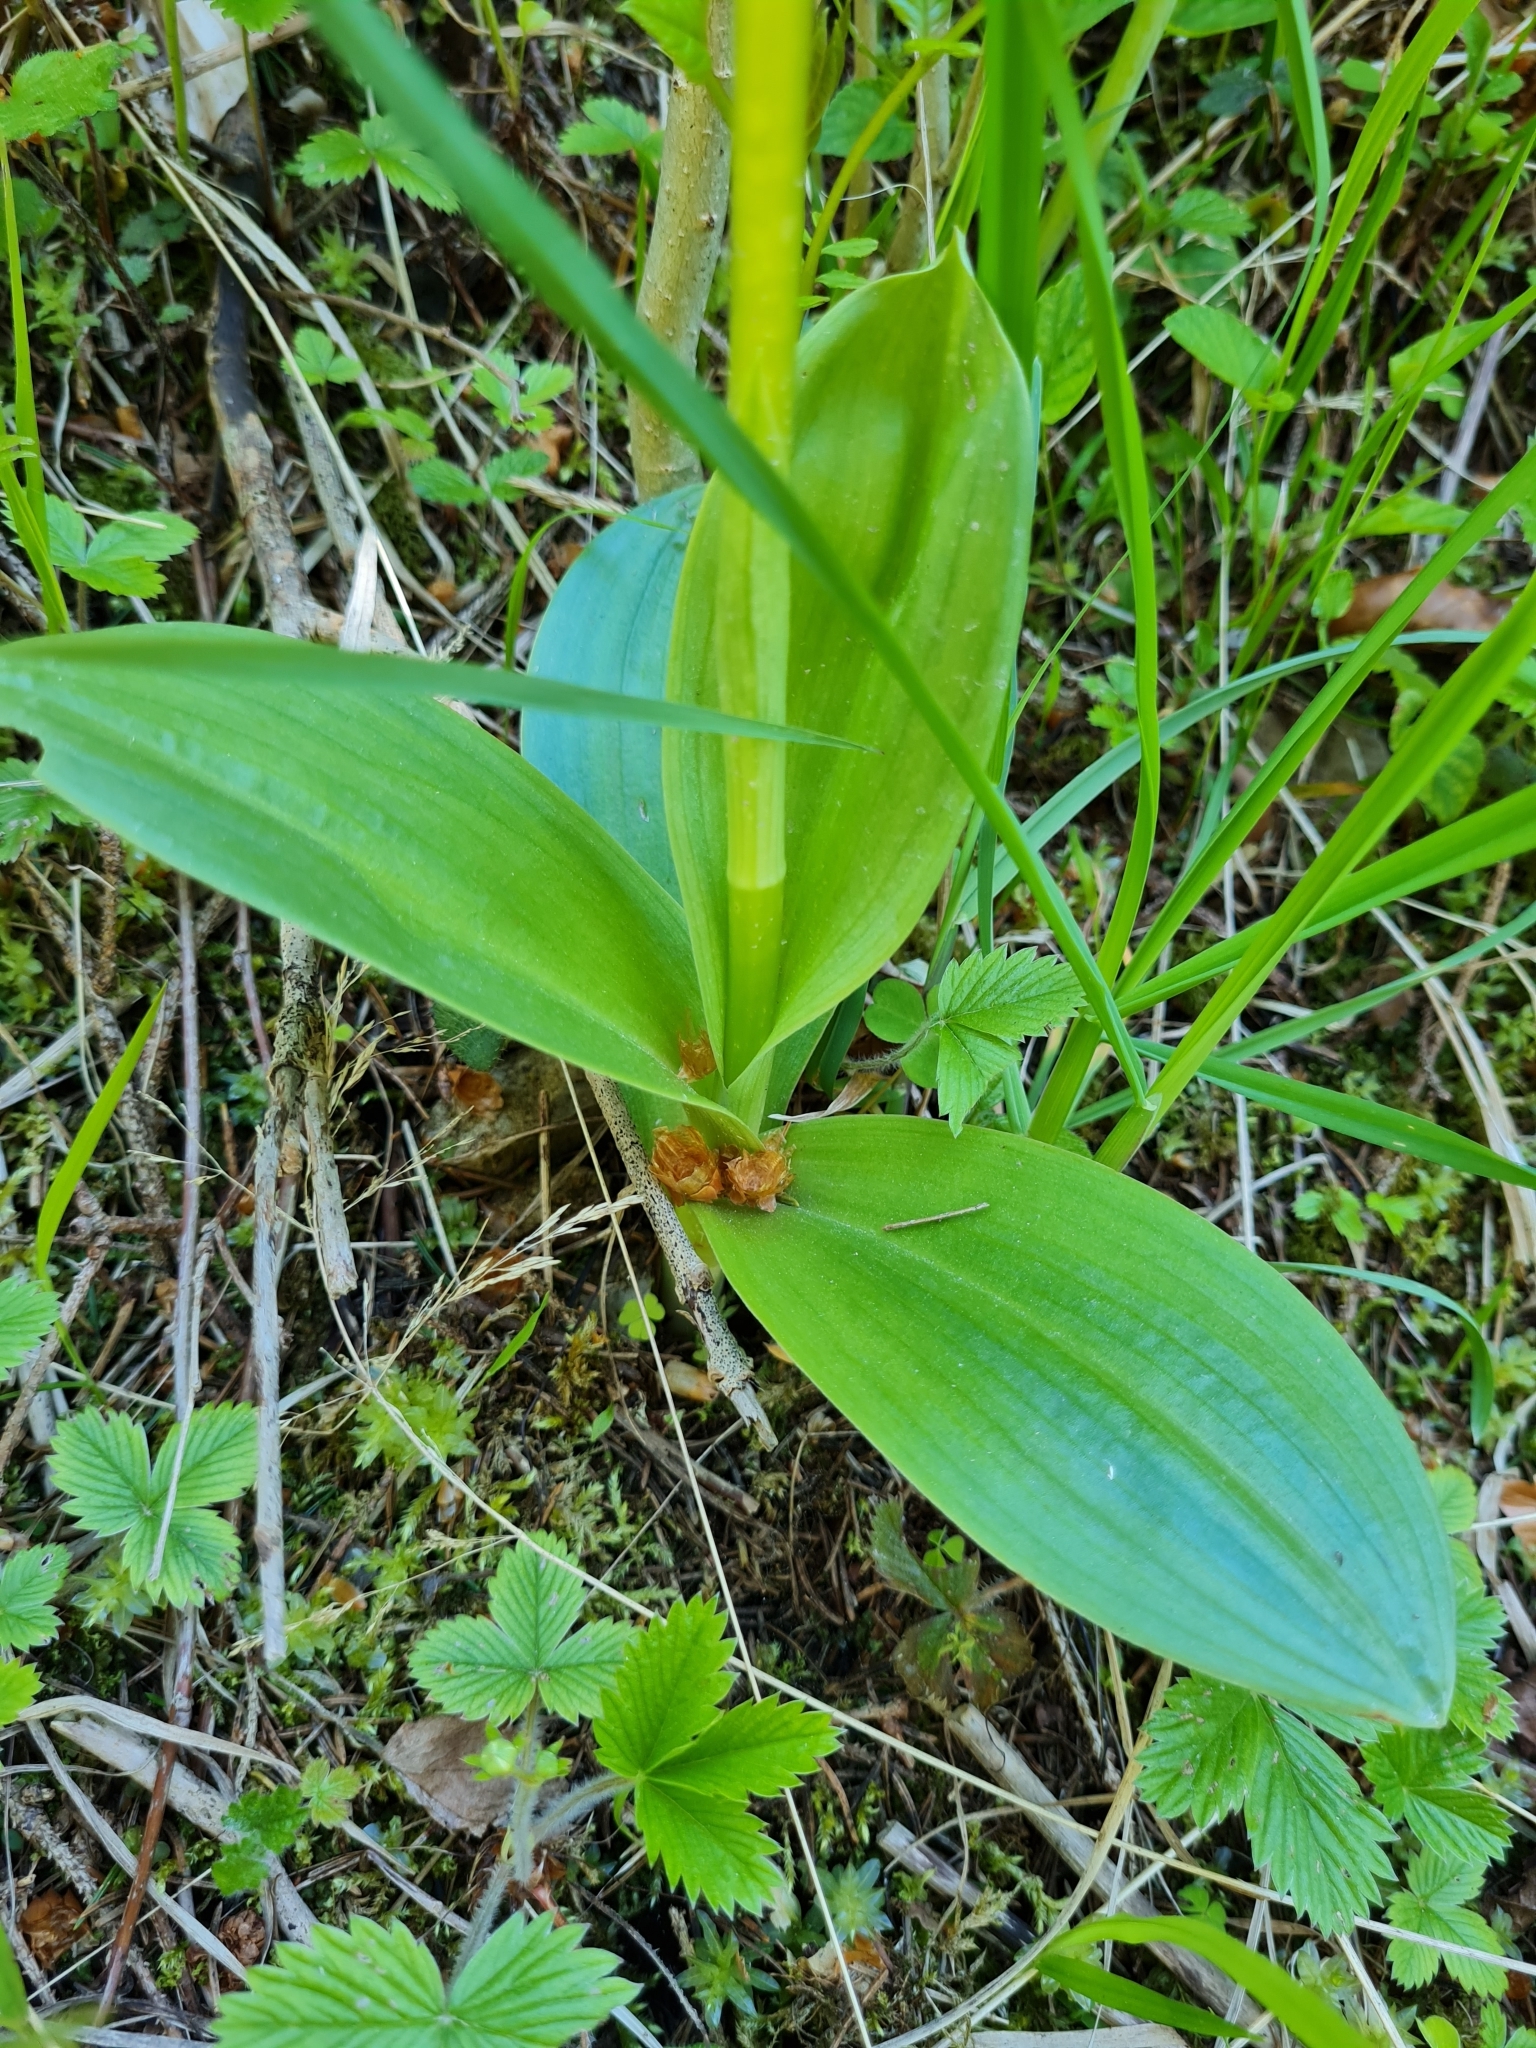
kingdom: Plantae
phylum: Tracheophyta
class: Liliopsida
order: Asparagales
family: Orchidaceae
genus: Orchis
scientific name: Orchis pallens
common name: Pale-flowered orchid
